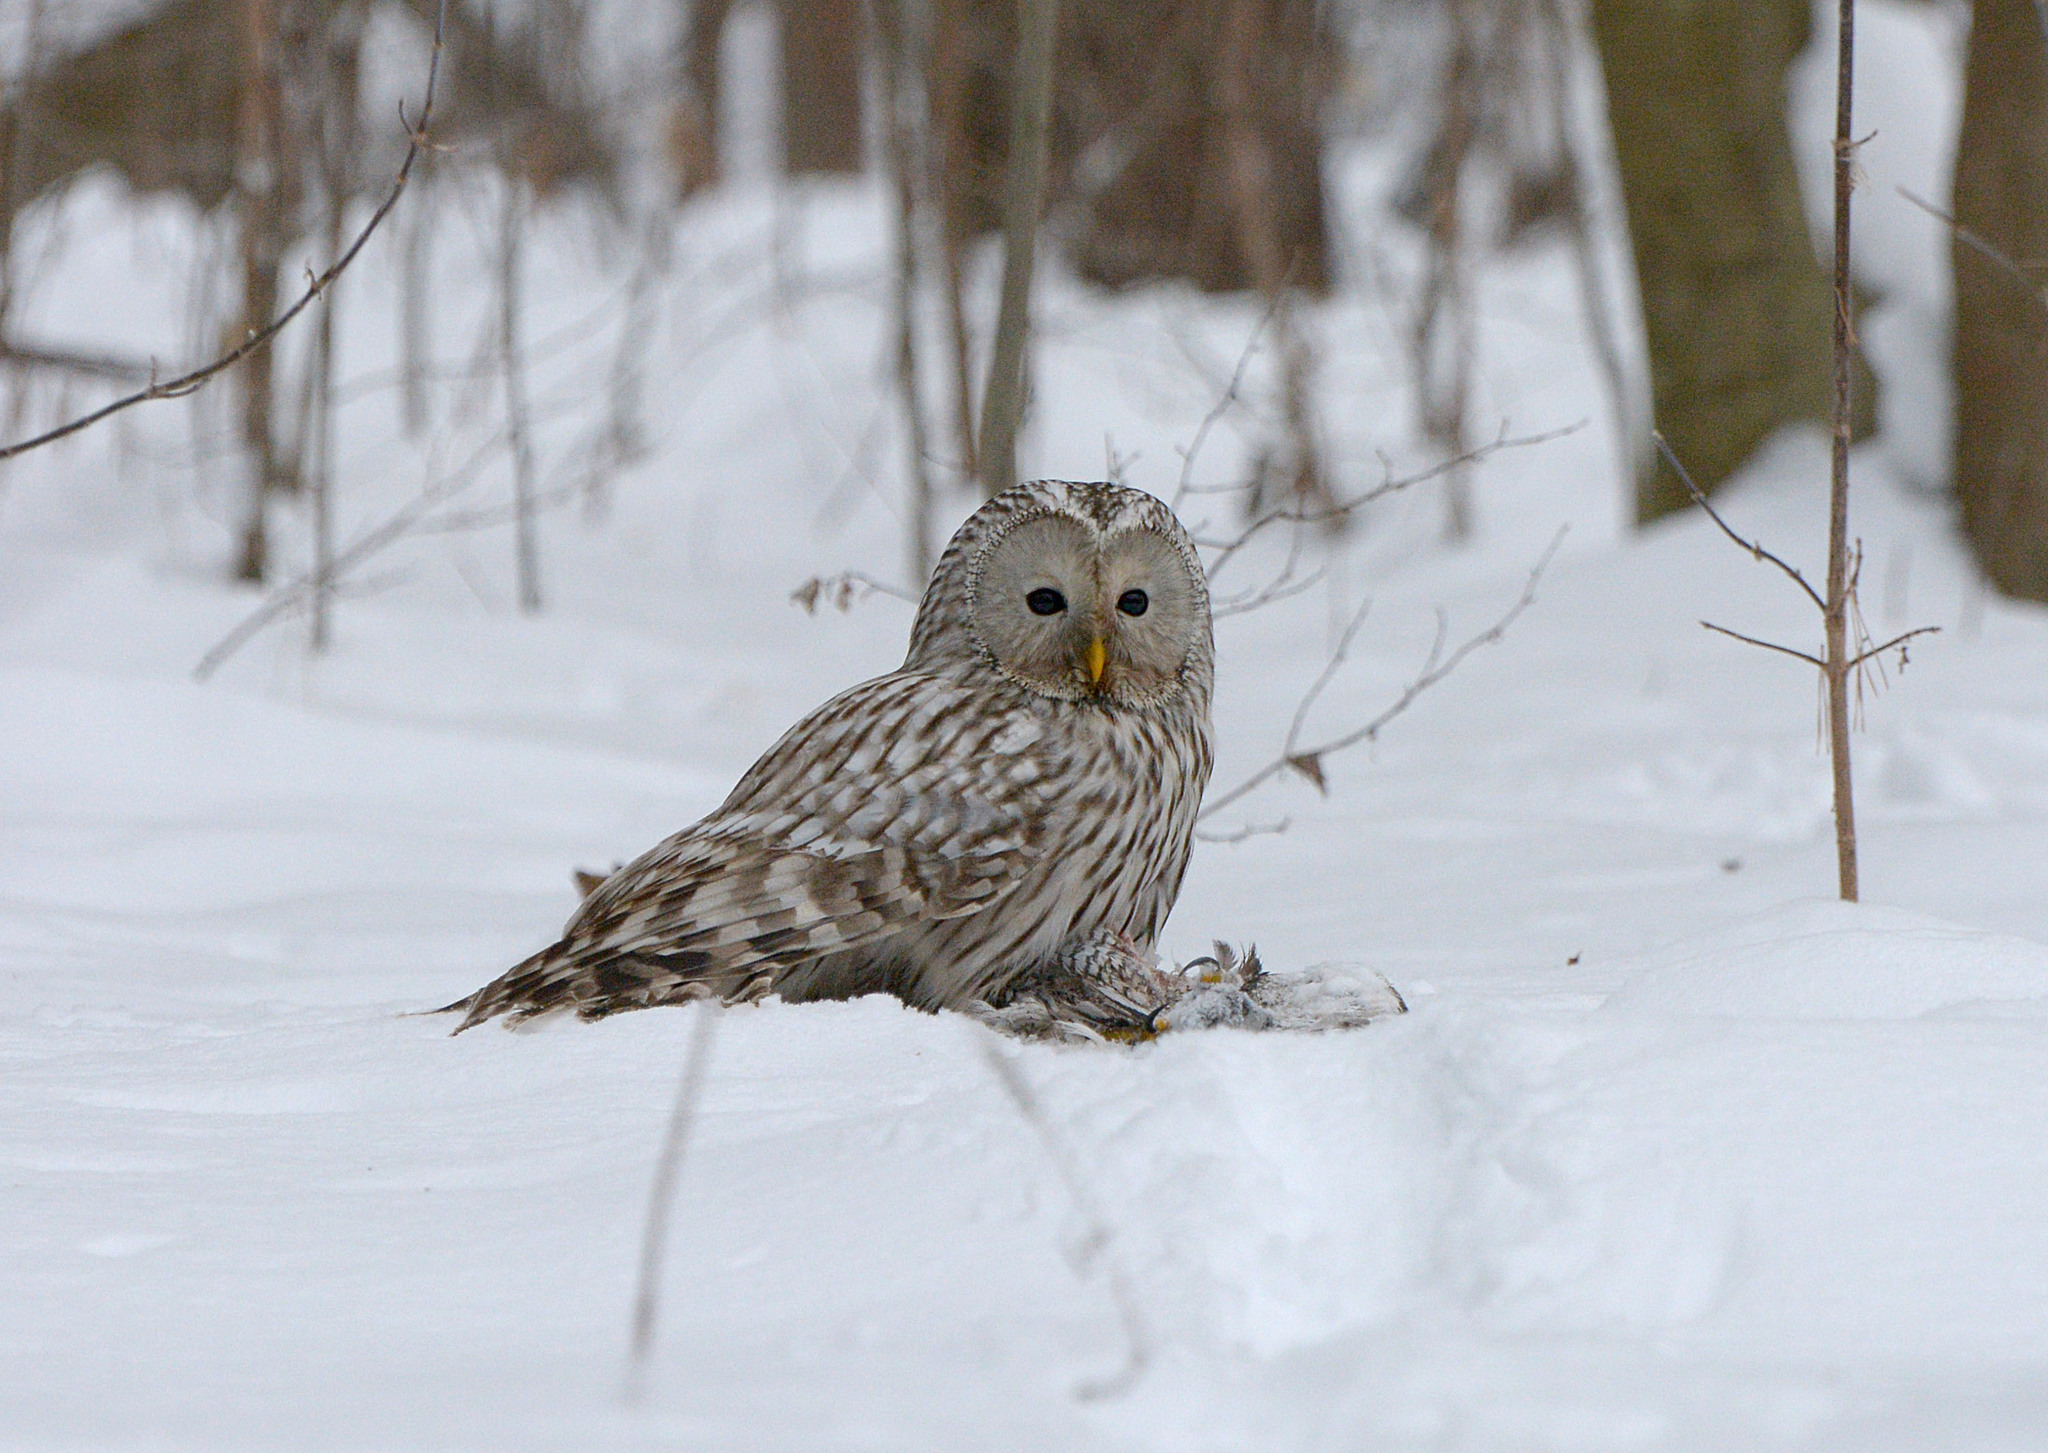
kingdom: Animalia
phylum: Chordata
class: Aves
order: Strigiformes
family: Strigidae
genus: Strix
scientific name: Strix uralensis
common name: Ural owl
